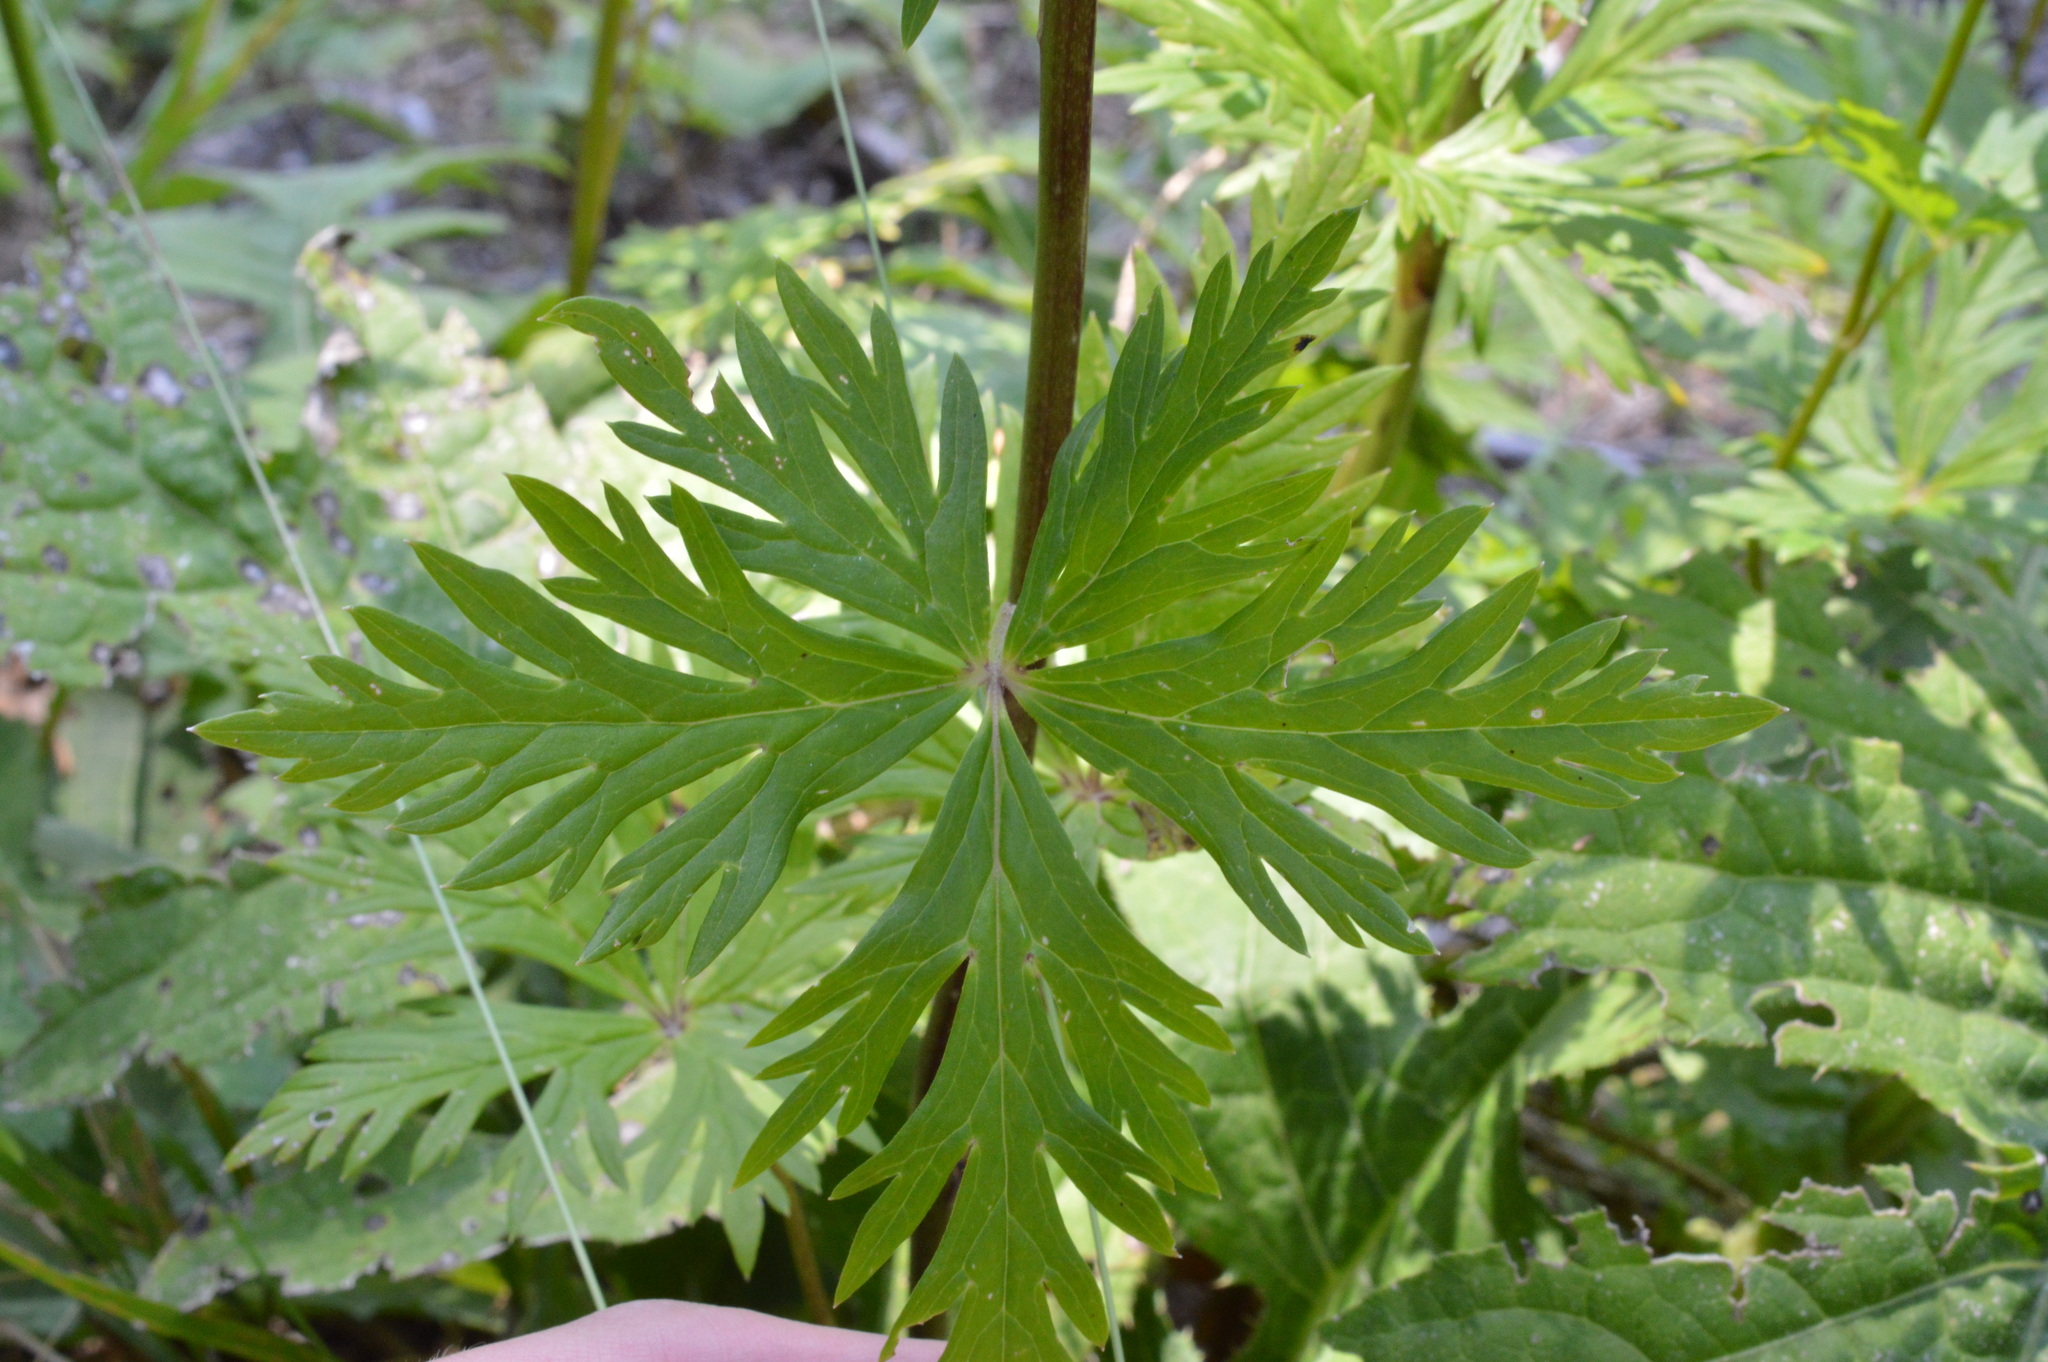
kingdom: Plantae
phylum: Tracheophyta
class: Magnoliopsida
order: Ranunculales
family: Ranunculaceae
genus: Aconitum
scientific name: Aconitum degenii
